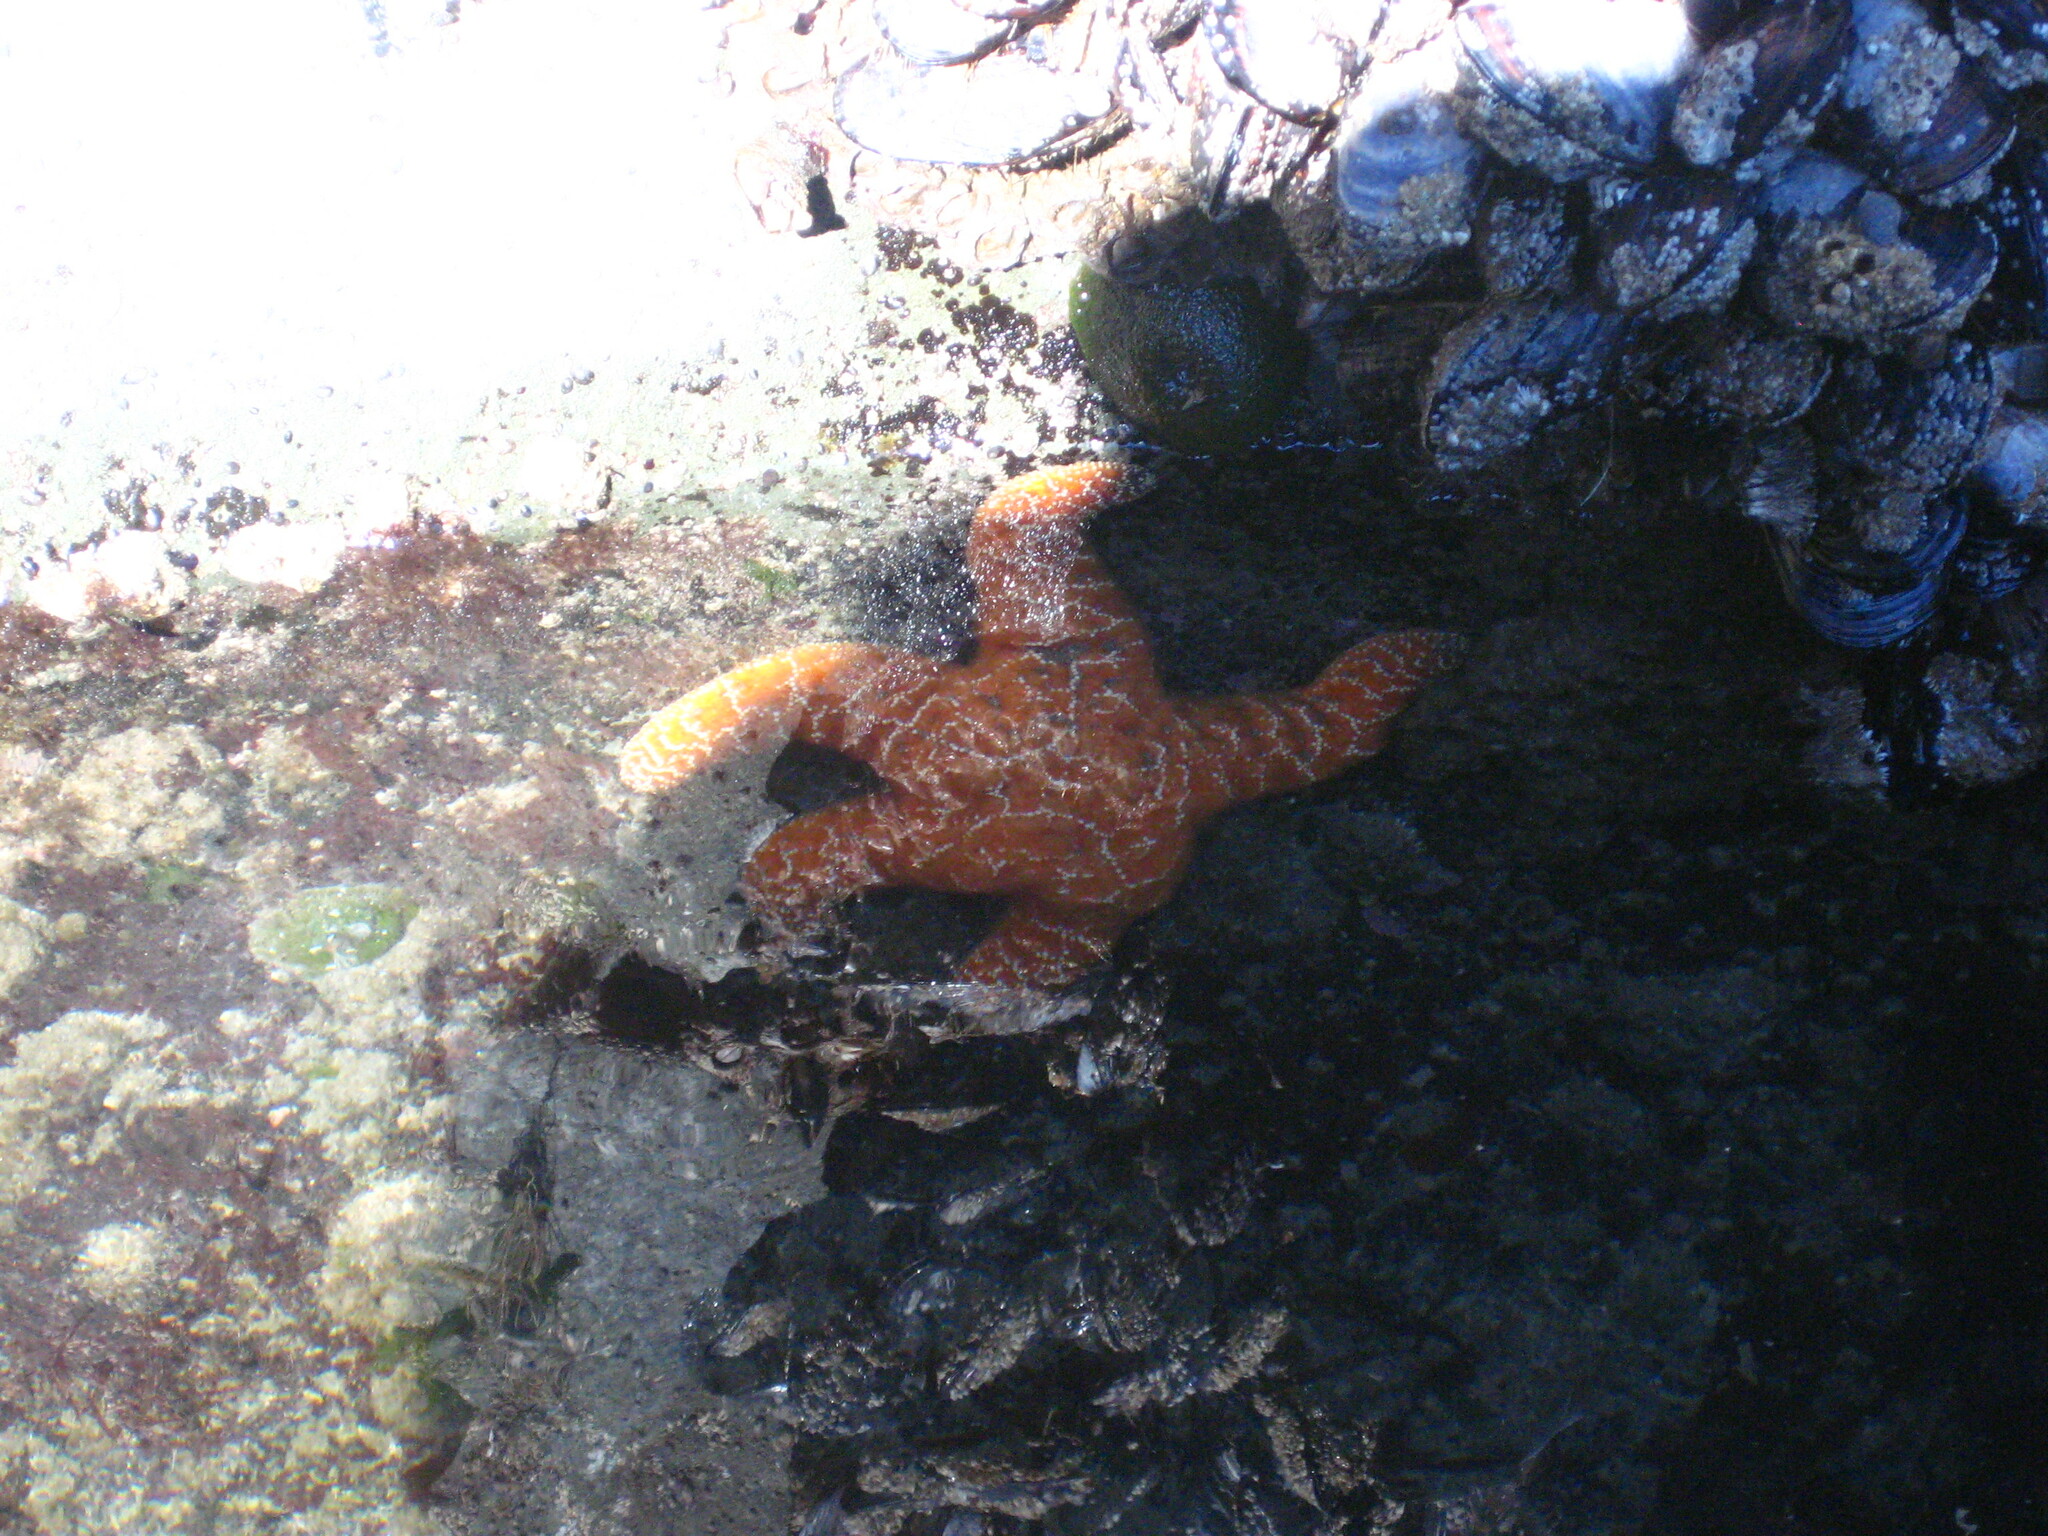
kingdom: Animalia
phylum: Echinodermata
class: Asteroidea
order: Forcipulatida
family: Asteriidae
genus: Pisaster
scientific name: Pisaster ochraceus
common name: Ochre stars
